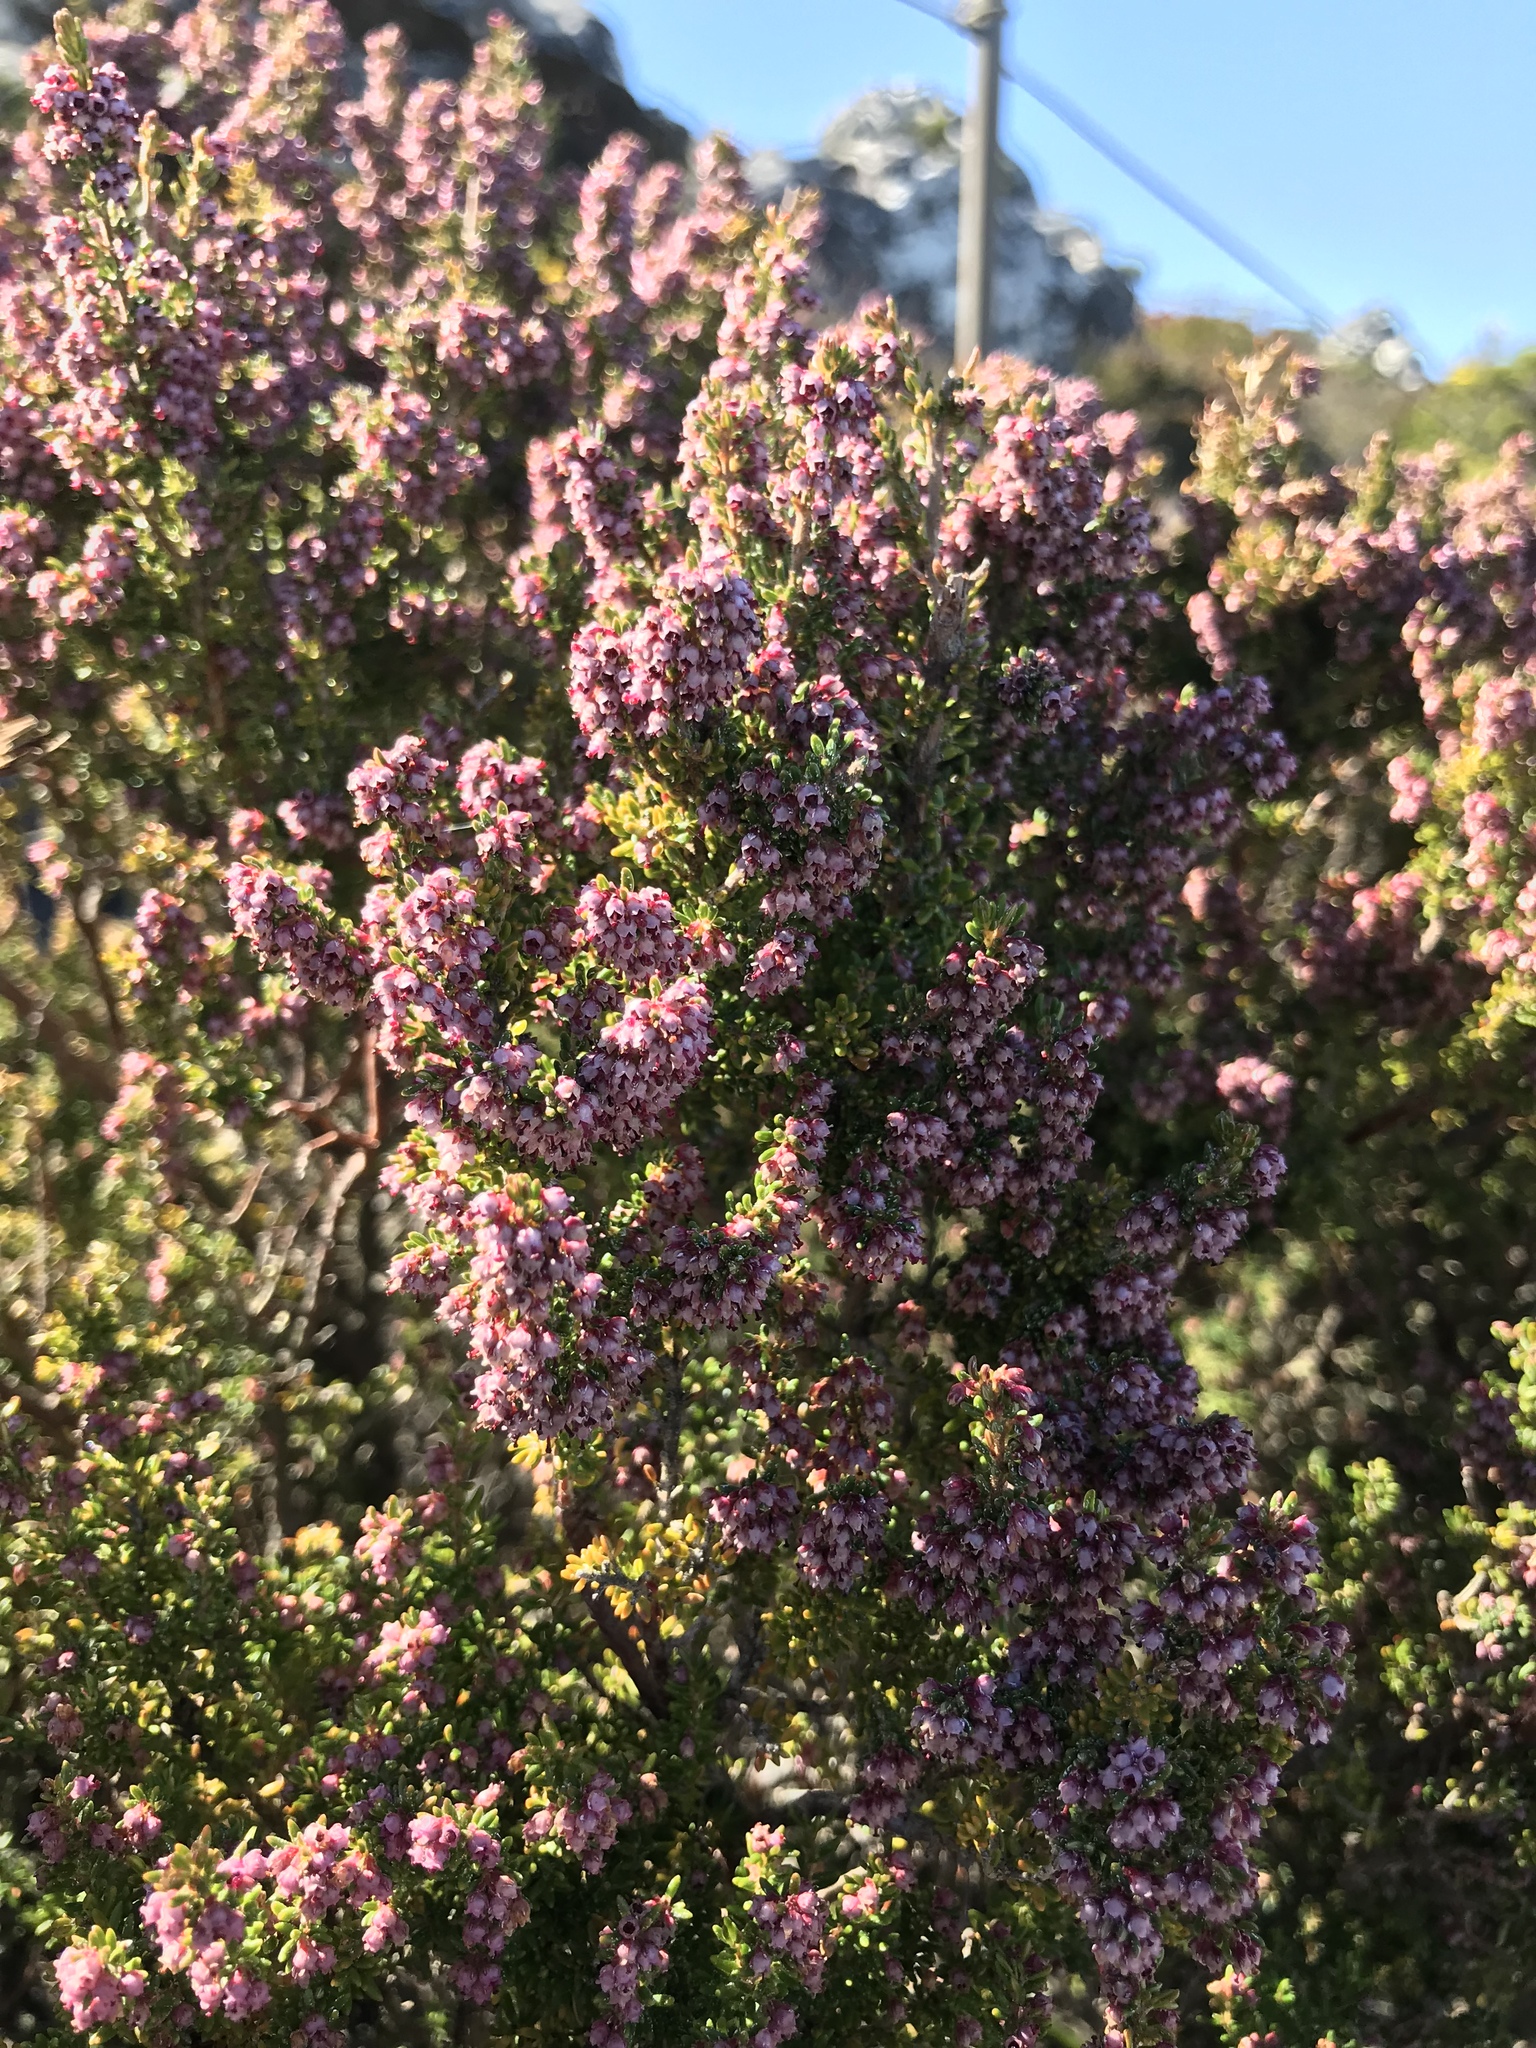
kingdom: Plantae
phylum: Tracheophyta
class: Magnoliopsida
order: Ericales
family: Ericaceae
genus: Erica
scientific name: Erica hispidula
